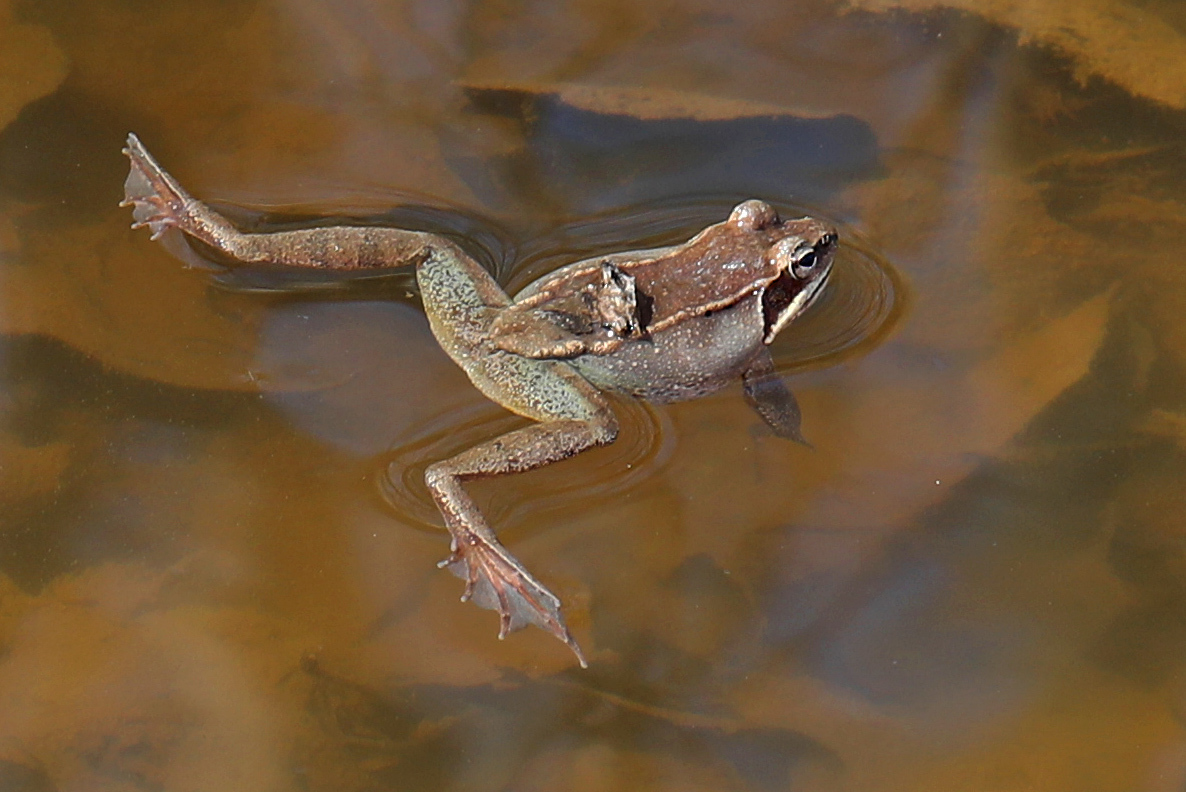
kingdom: Animalia
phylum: Chordata
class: Amphibia
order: Anura
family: Ranidae
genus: Lithobates
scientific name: Lithobates sylvaticus
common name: Wood frog
